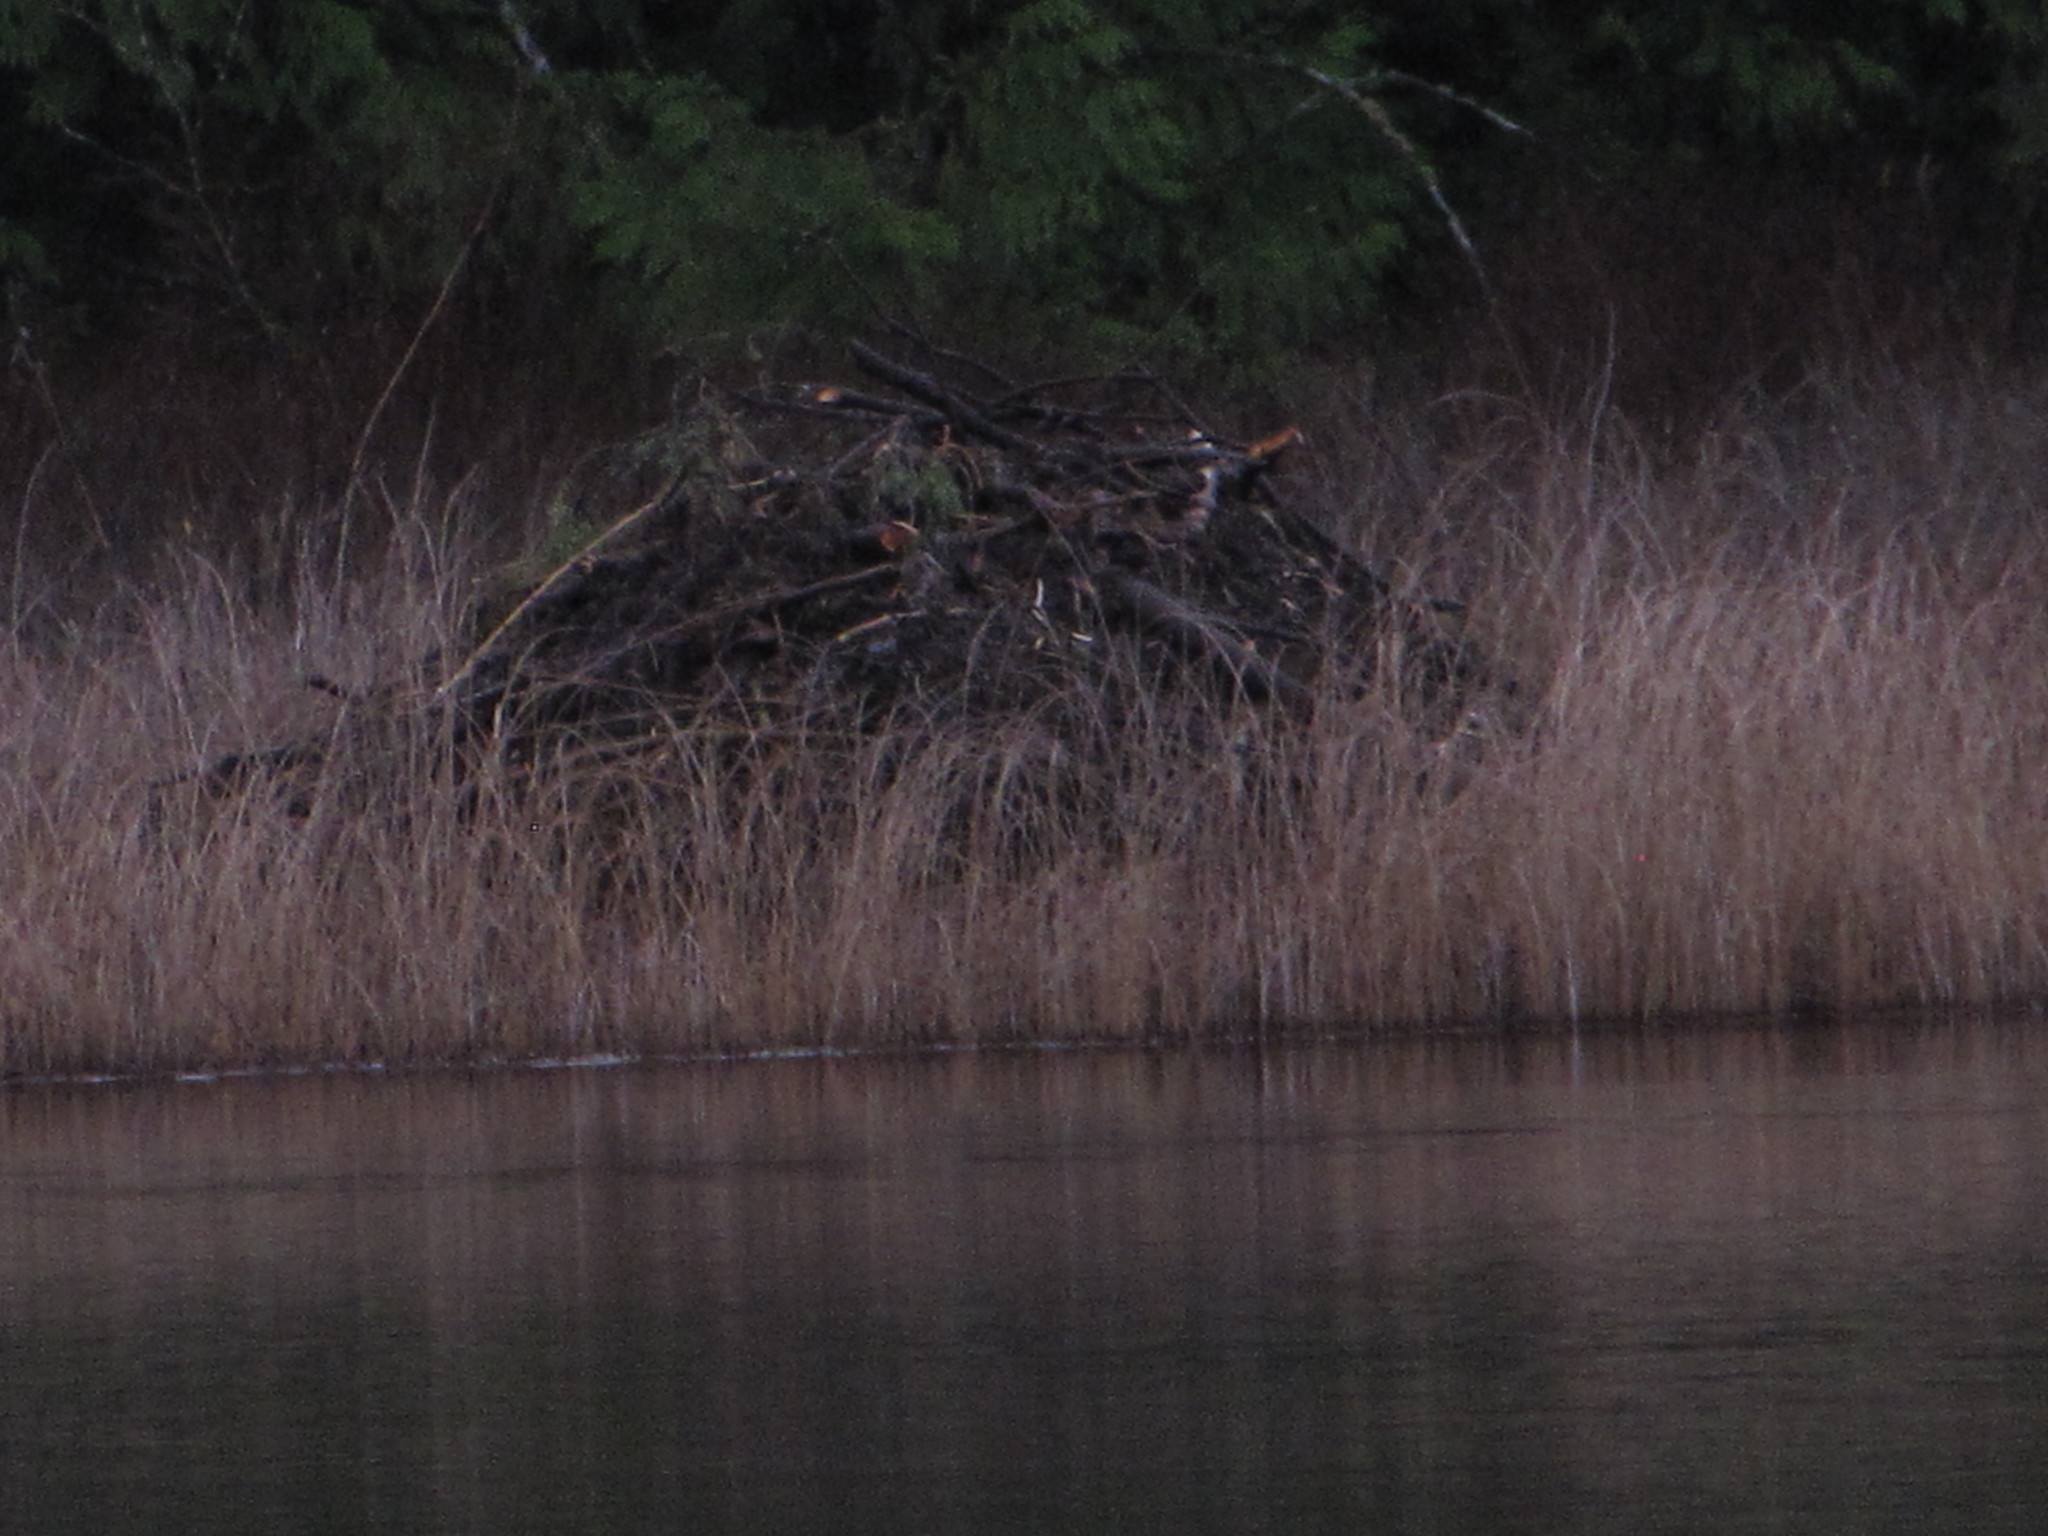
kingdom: Animalia
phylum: Chordata
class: Mammalia
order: Rodentia
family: Castoridae
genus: Castor
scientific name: Castor canadensis
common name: American beaver
